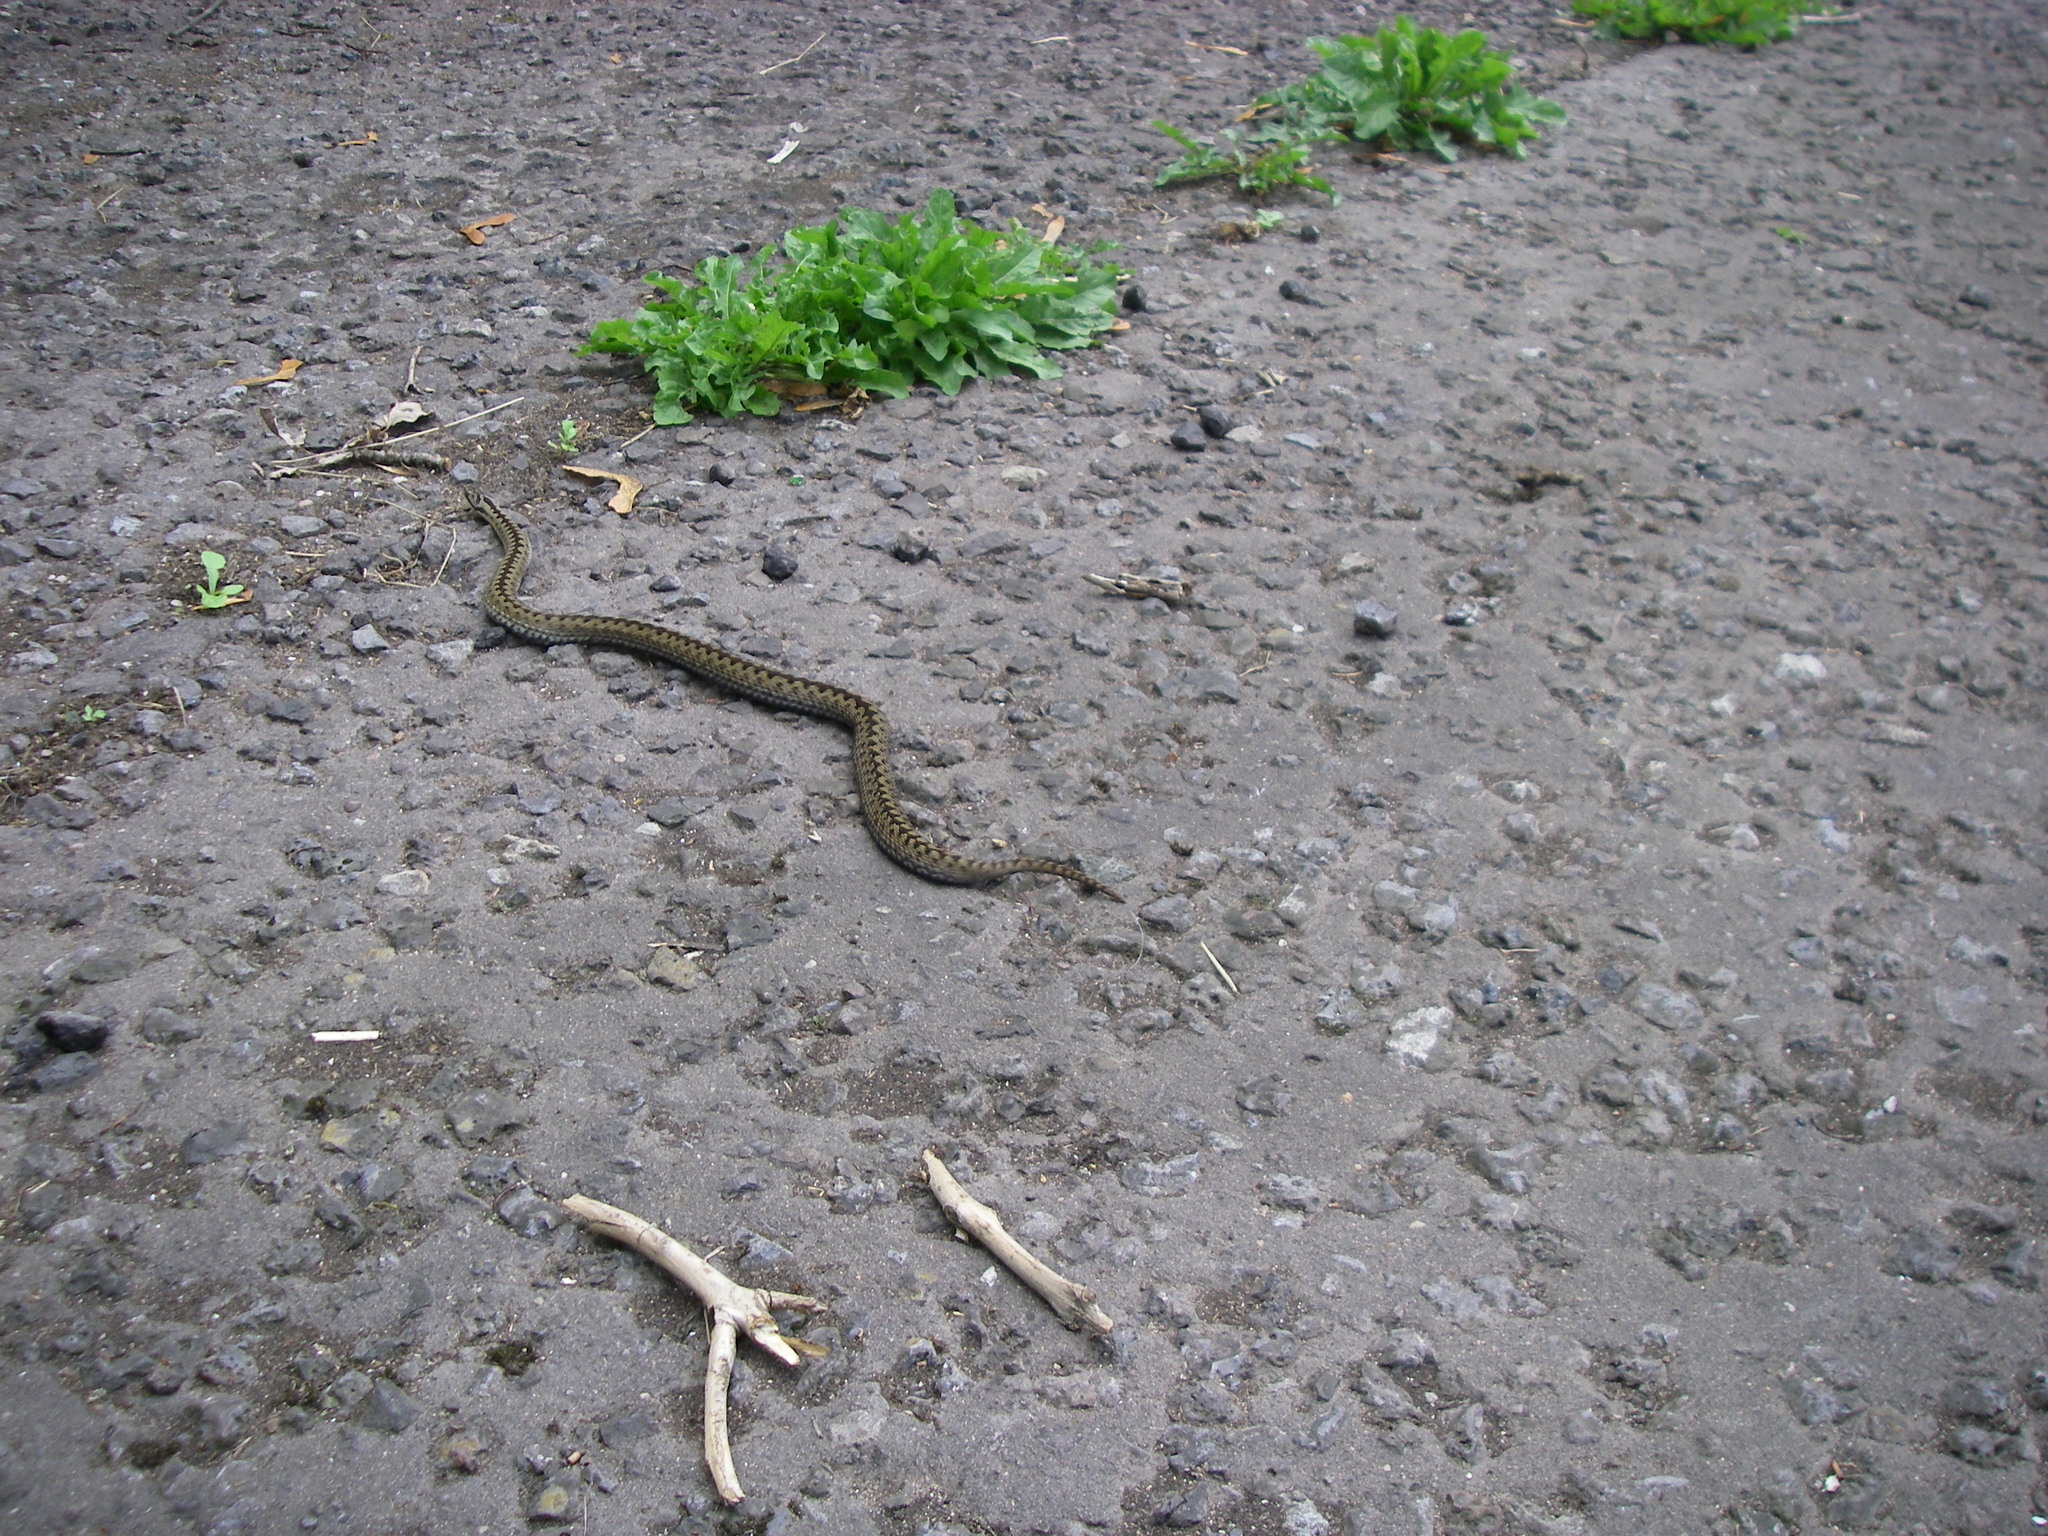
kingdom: Animalia
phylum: Chordata
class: Squamata
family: Viperidae
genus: Vipera
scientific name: Vipera berus
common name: Adder
